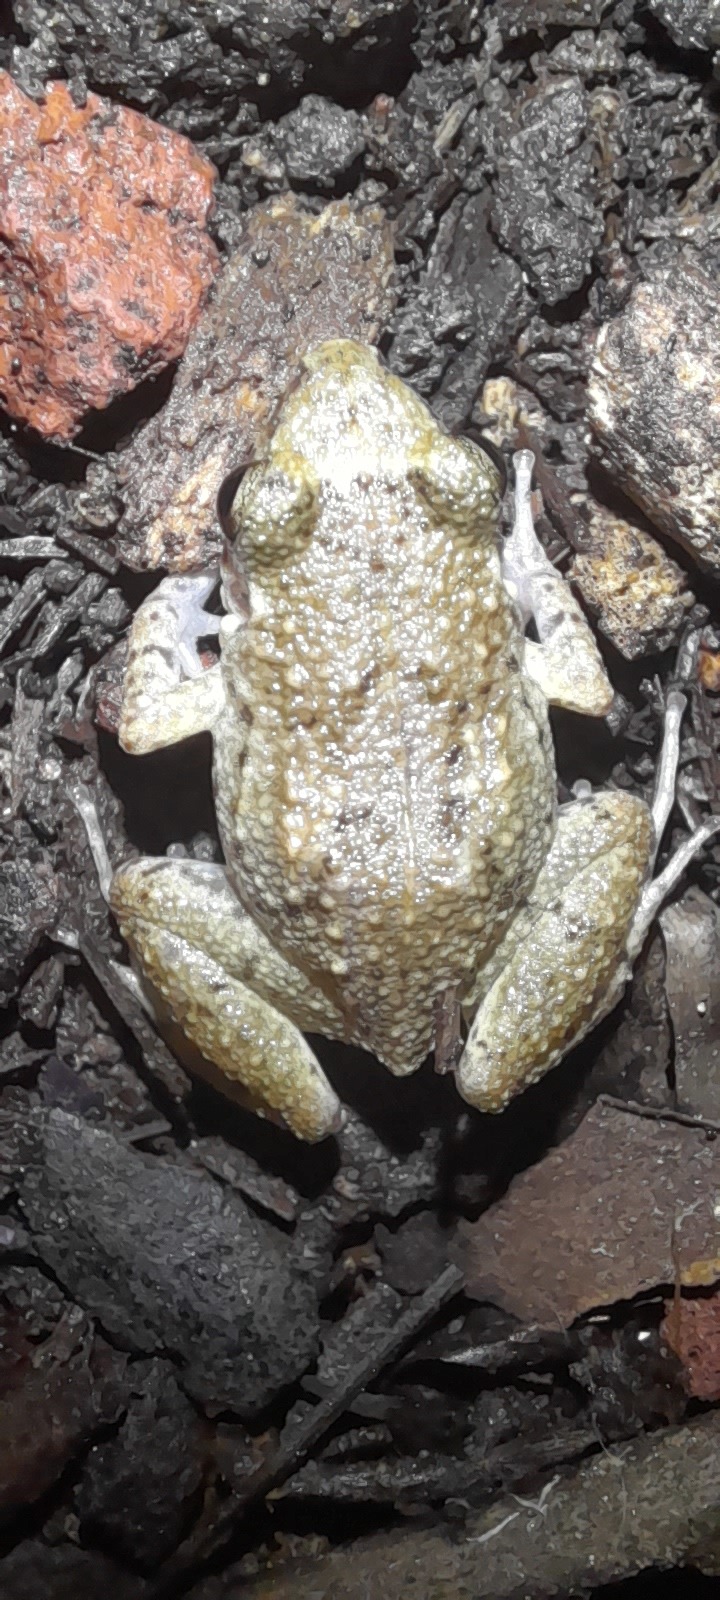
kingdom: Animalia
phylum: Chordata
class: Amphibia
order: Anura
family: Eleutherodactylidae
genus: Eleutherodactylus
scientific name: Eleutherodactylus planirostris
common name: Greenhouse frog
